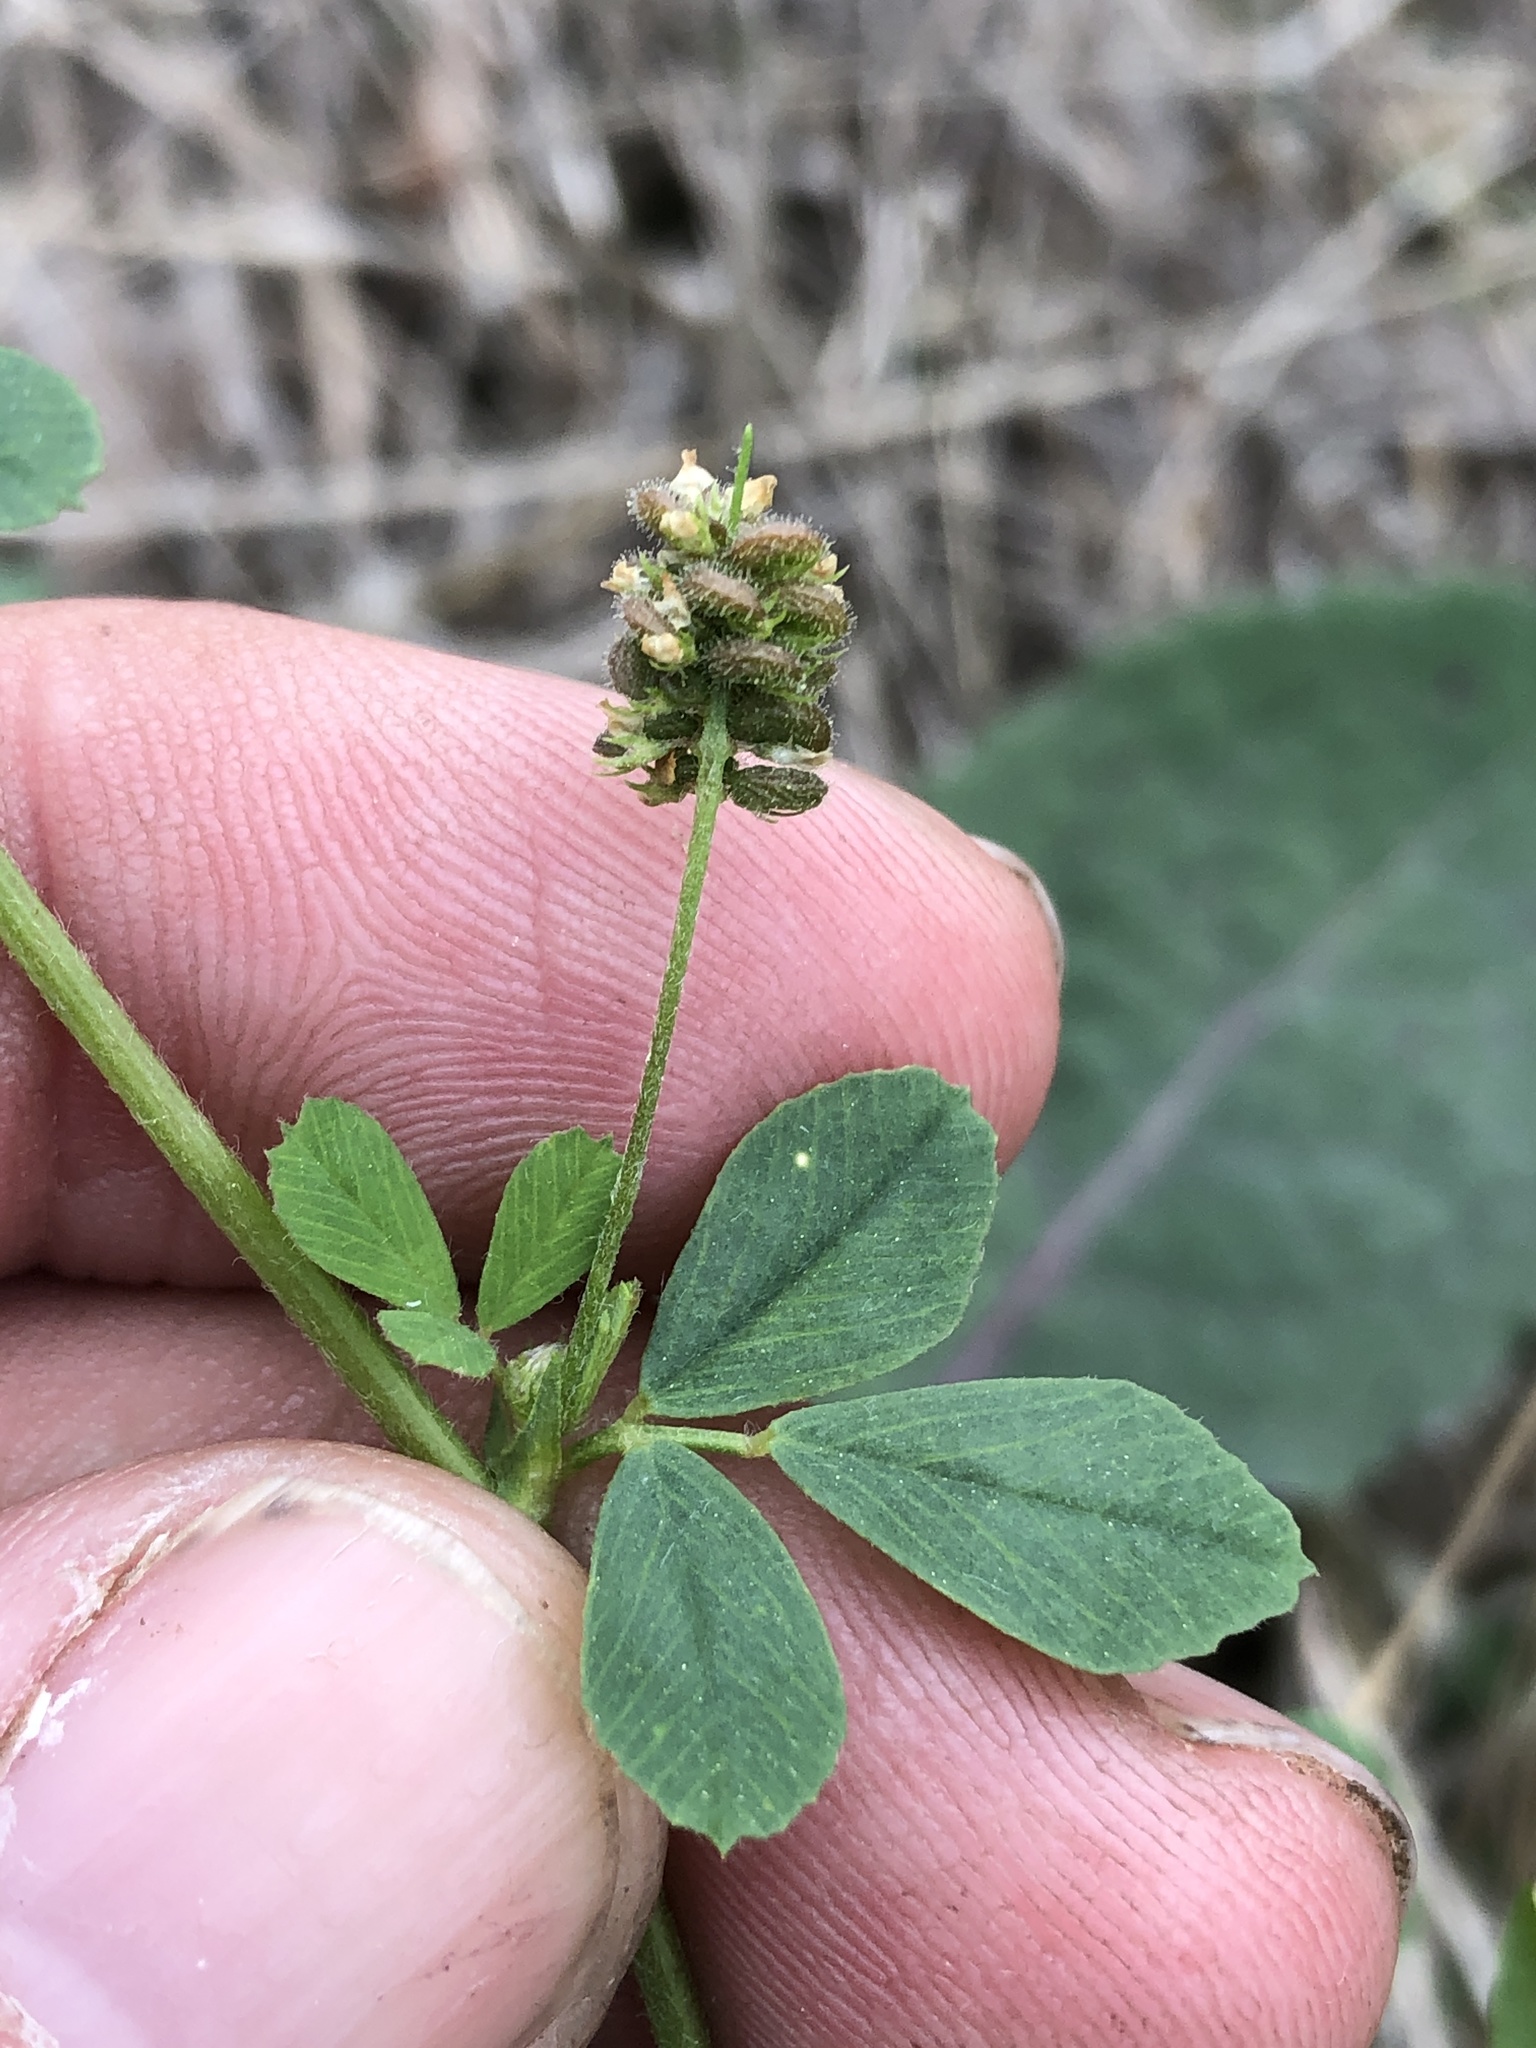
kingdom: Plantae
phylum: Tracheophyta
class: Magnoliopsida
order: Fabales
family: Fabaceae
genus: Medicago
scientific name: Medicago lupulina
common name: Black medick
